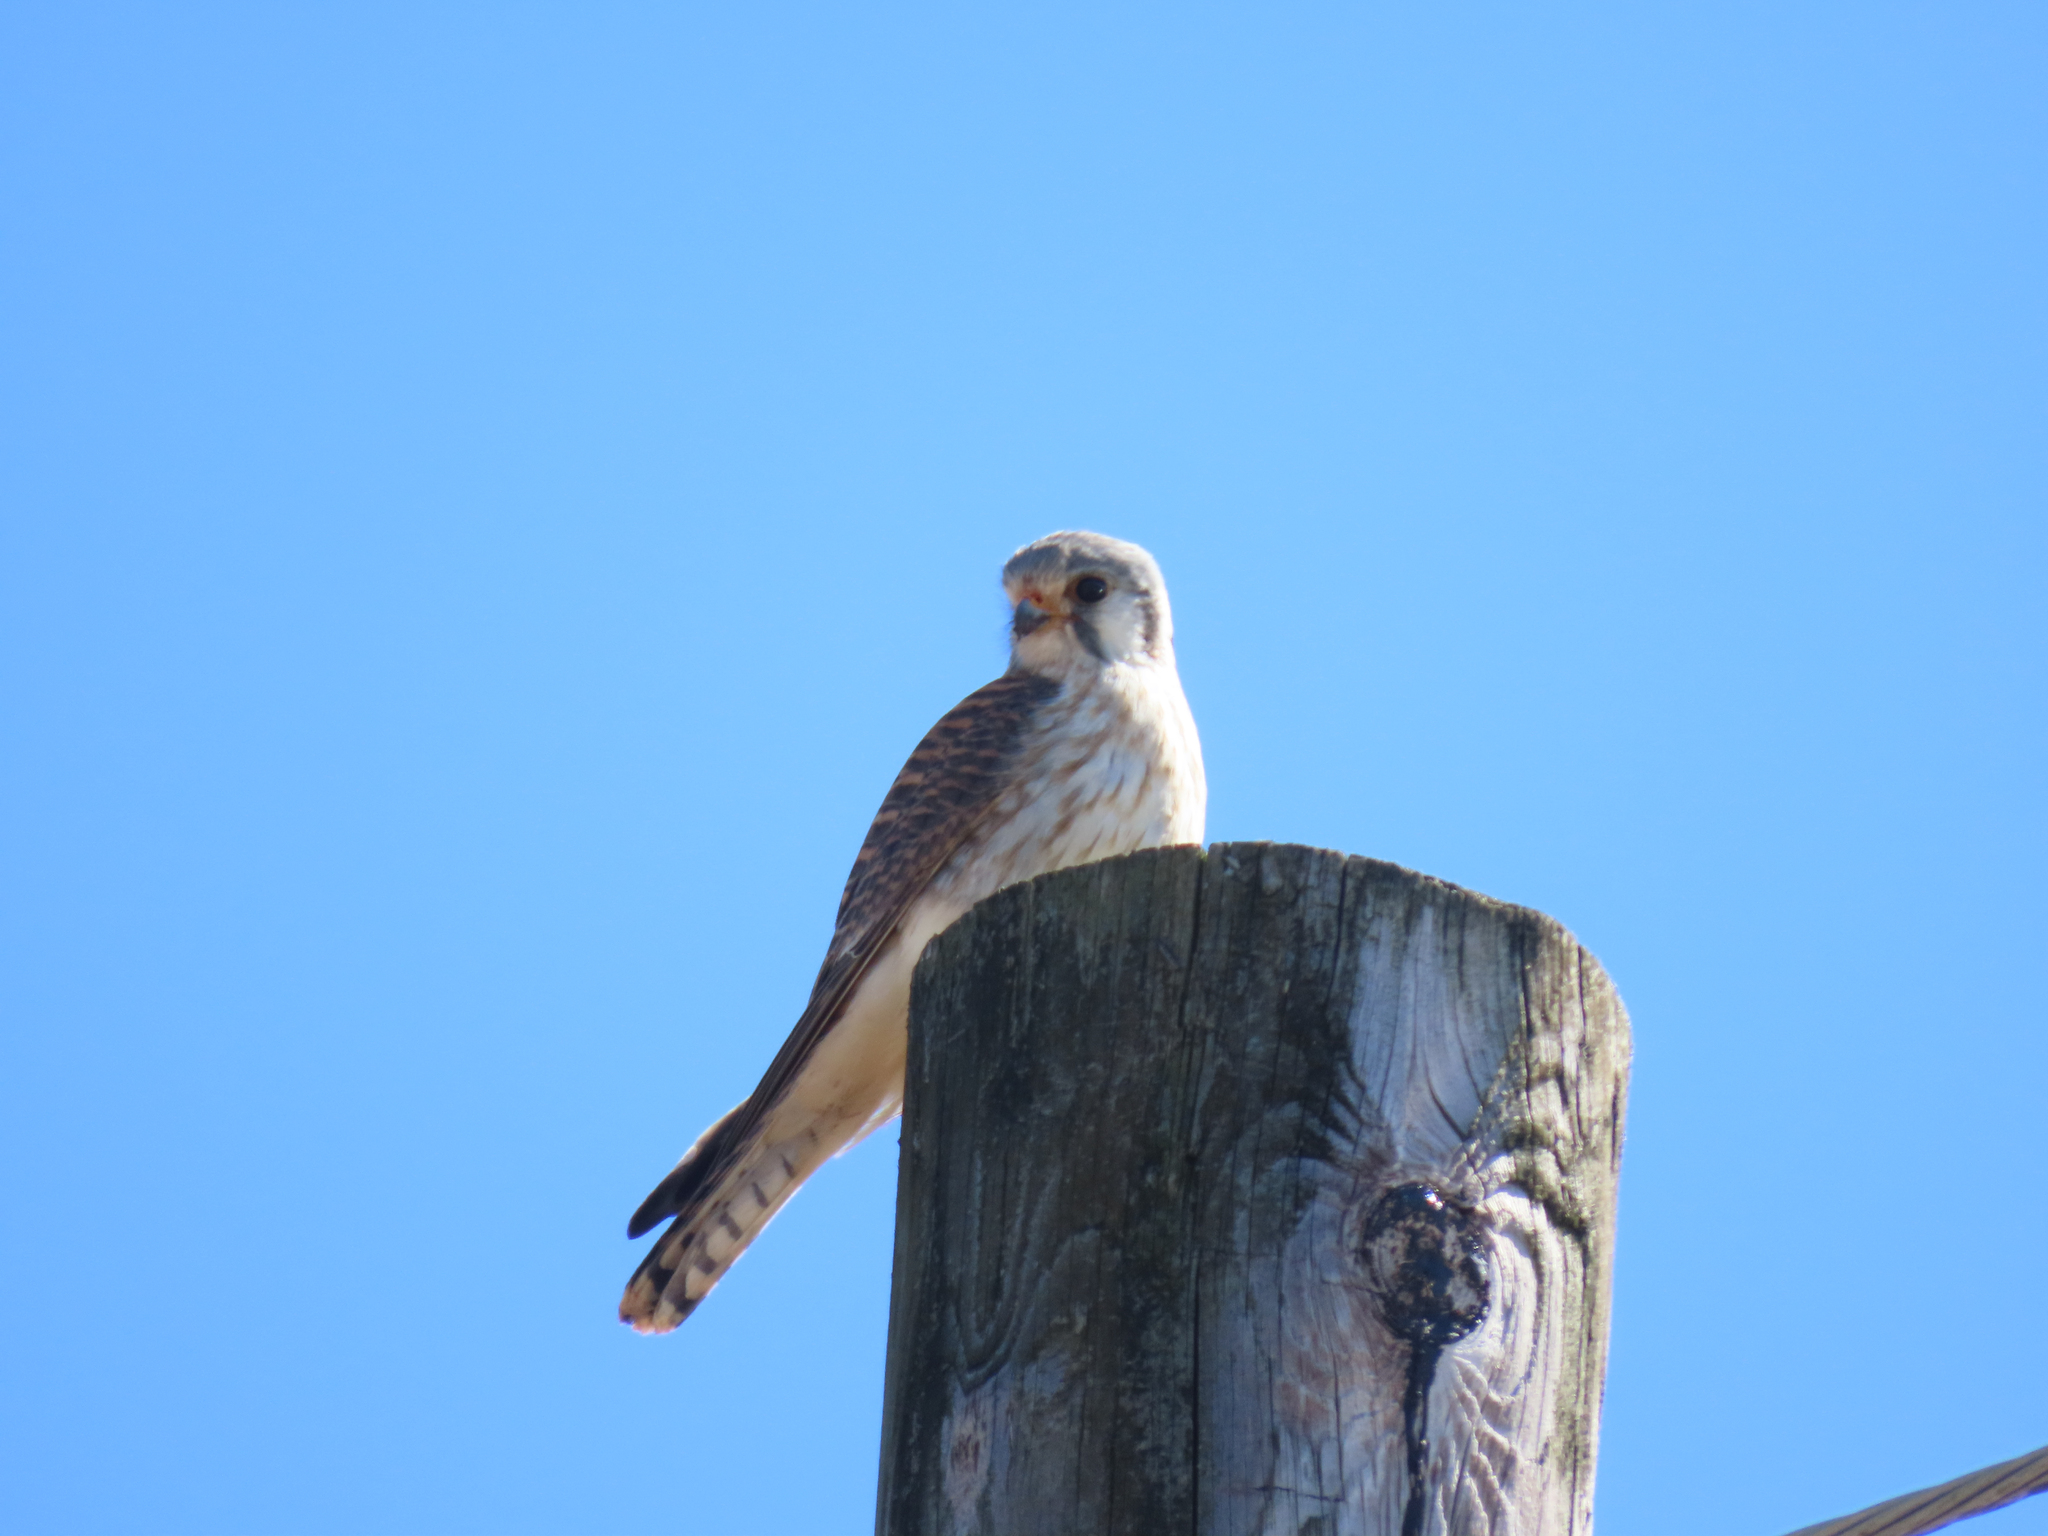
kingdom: Animalia
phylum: Chordata
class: Aves
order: Falconiformes
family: Falconidae
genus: Falco
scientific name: Falco sparverius
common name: American kestrel
